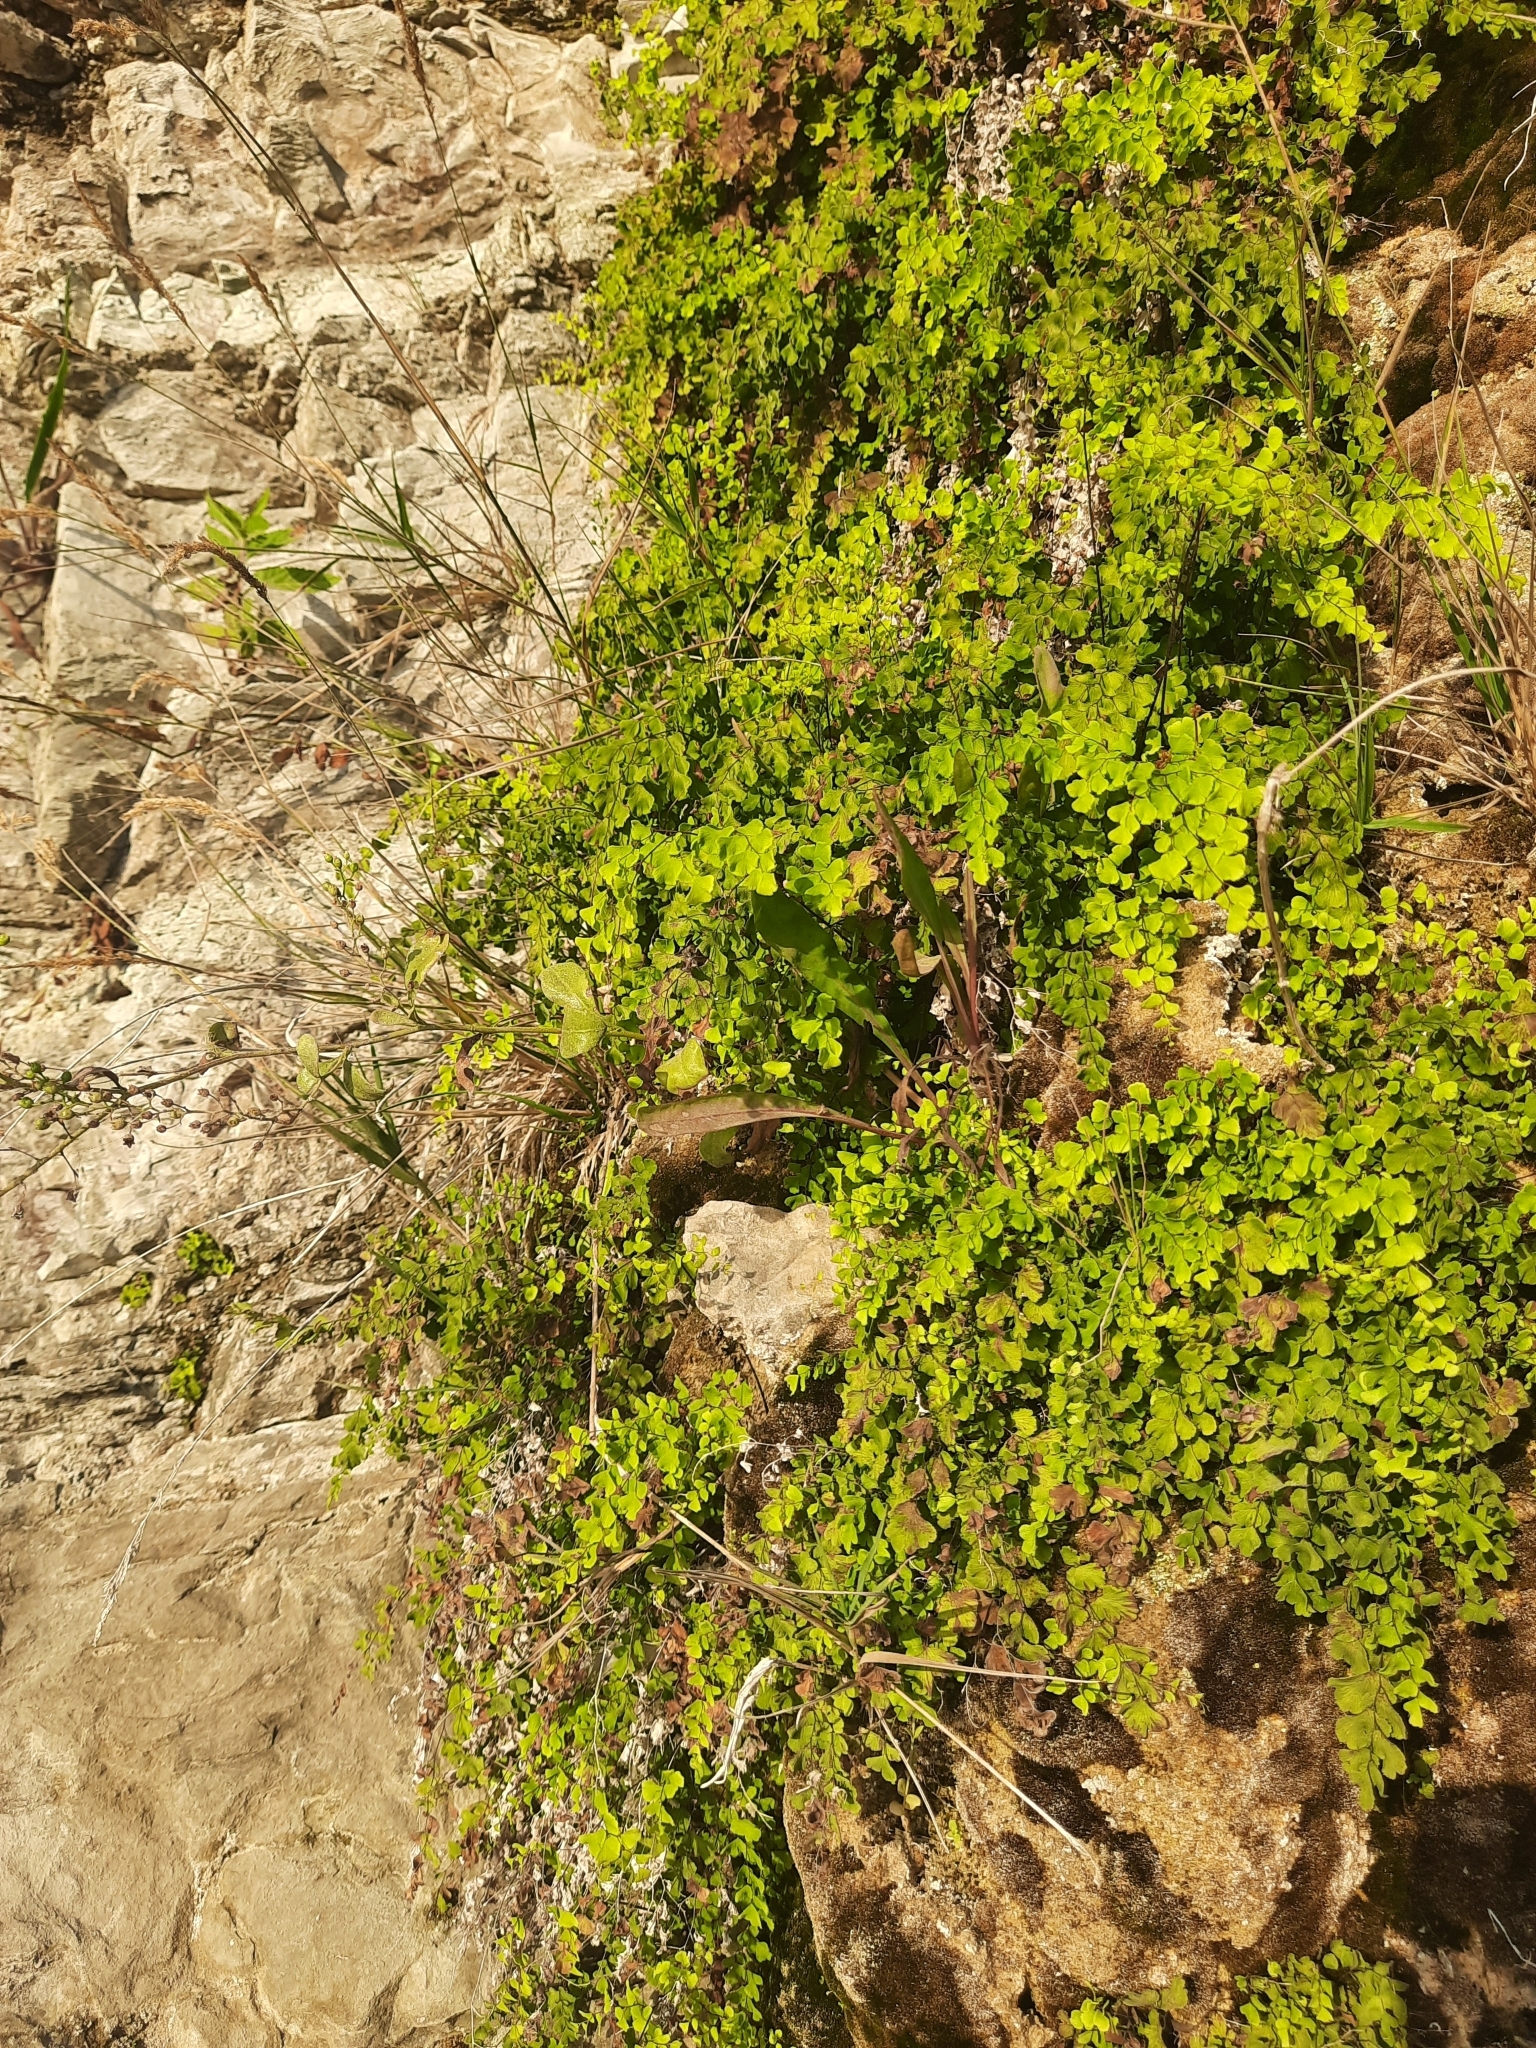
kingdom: Plantae
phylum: Tracheophyta
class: Polypodiopsida
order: Polypodiales
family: Pteridaceae
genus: Adiantum
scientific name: Adiantum capillus-veneris
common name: Maidenhair fern
